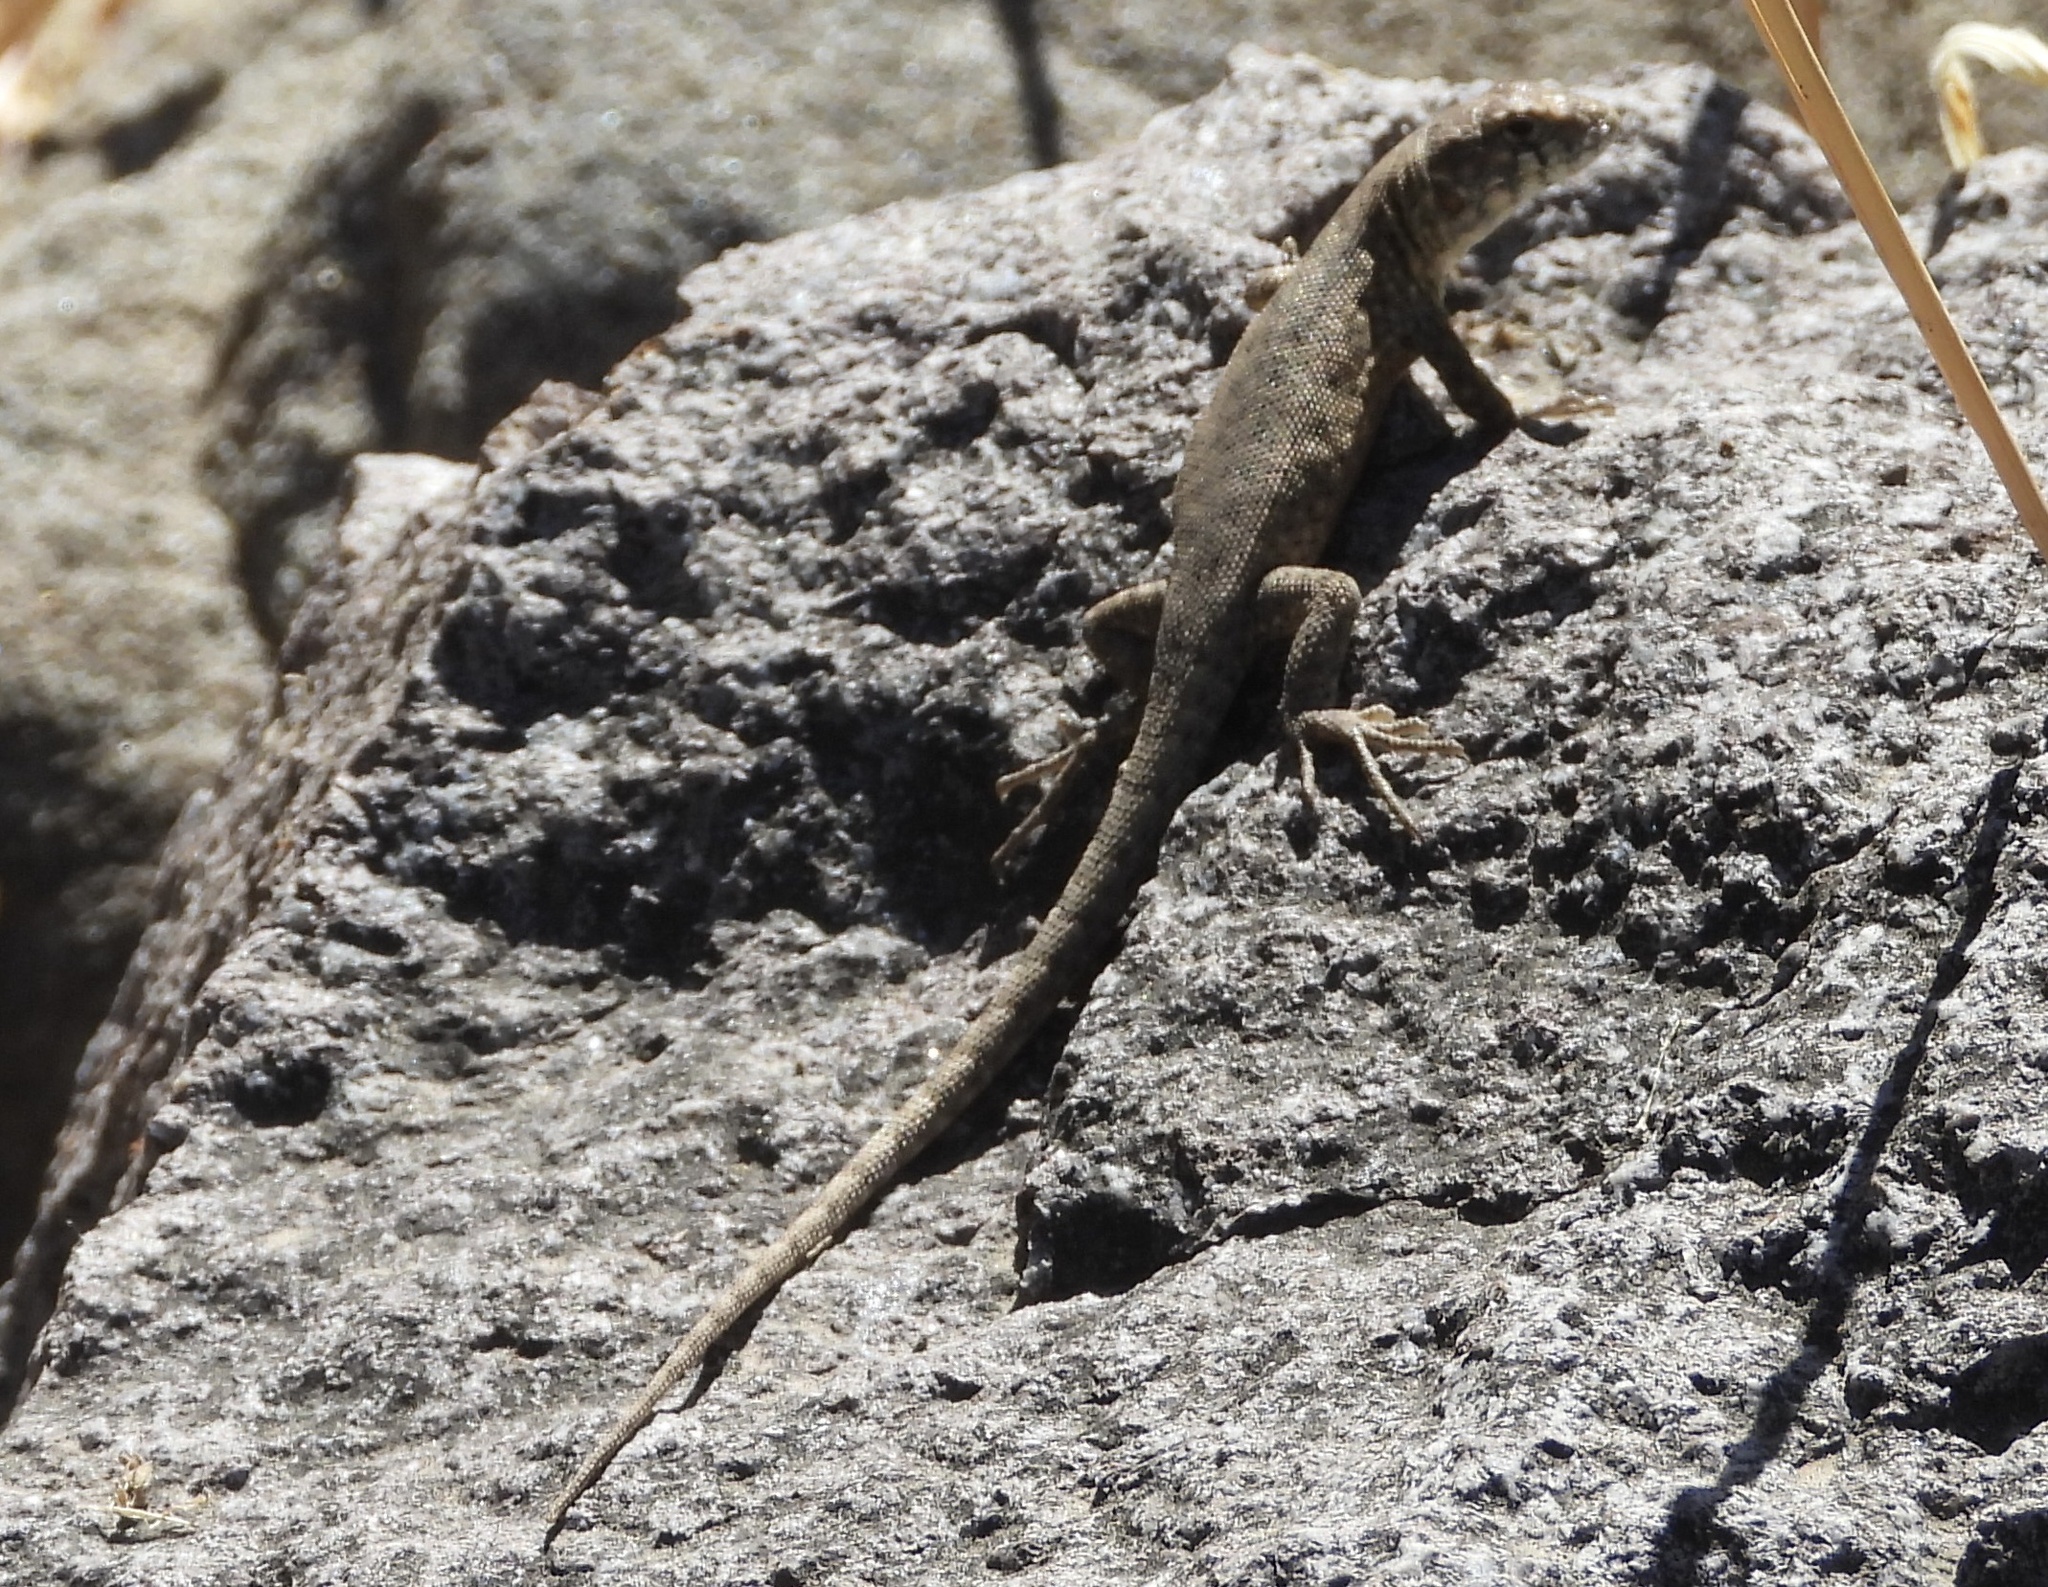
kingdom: Animalia
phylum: Chordata
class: Squamata
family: Liolaemidae
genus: Liolaemus
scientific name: Liolaemus monticola
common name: Peak tree iguana
